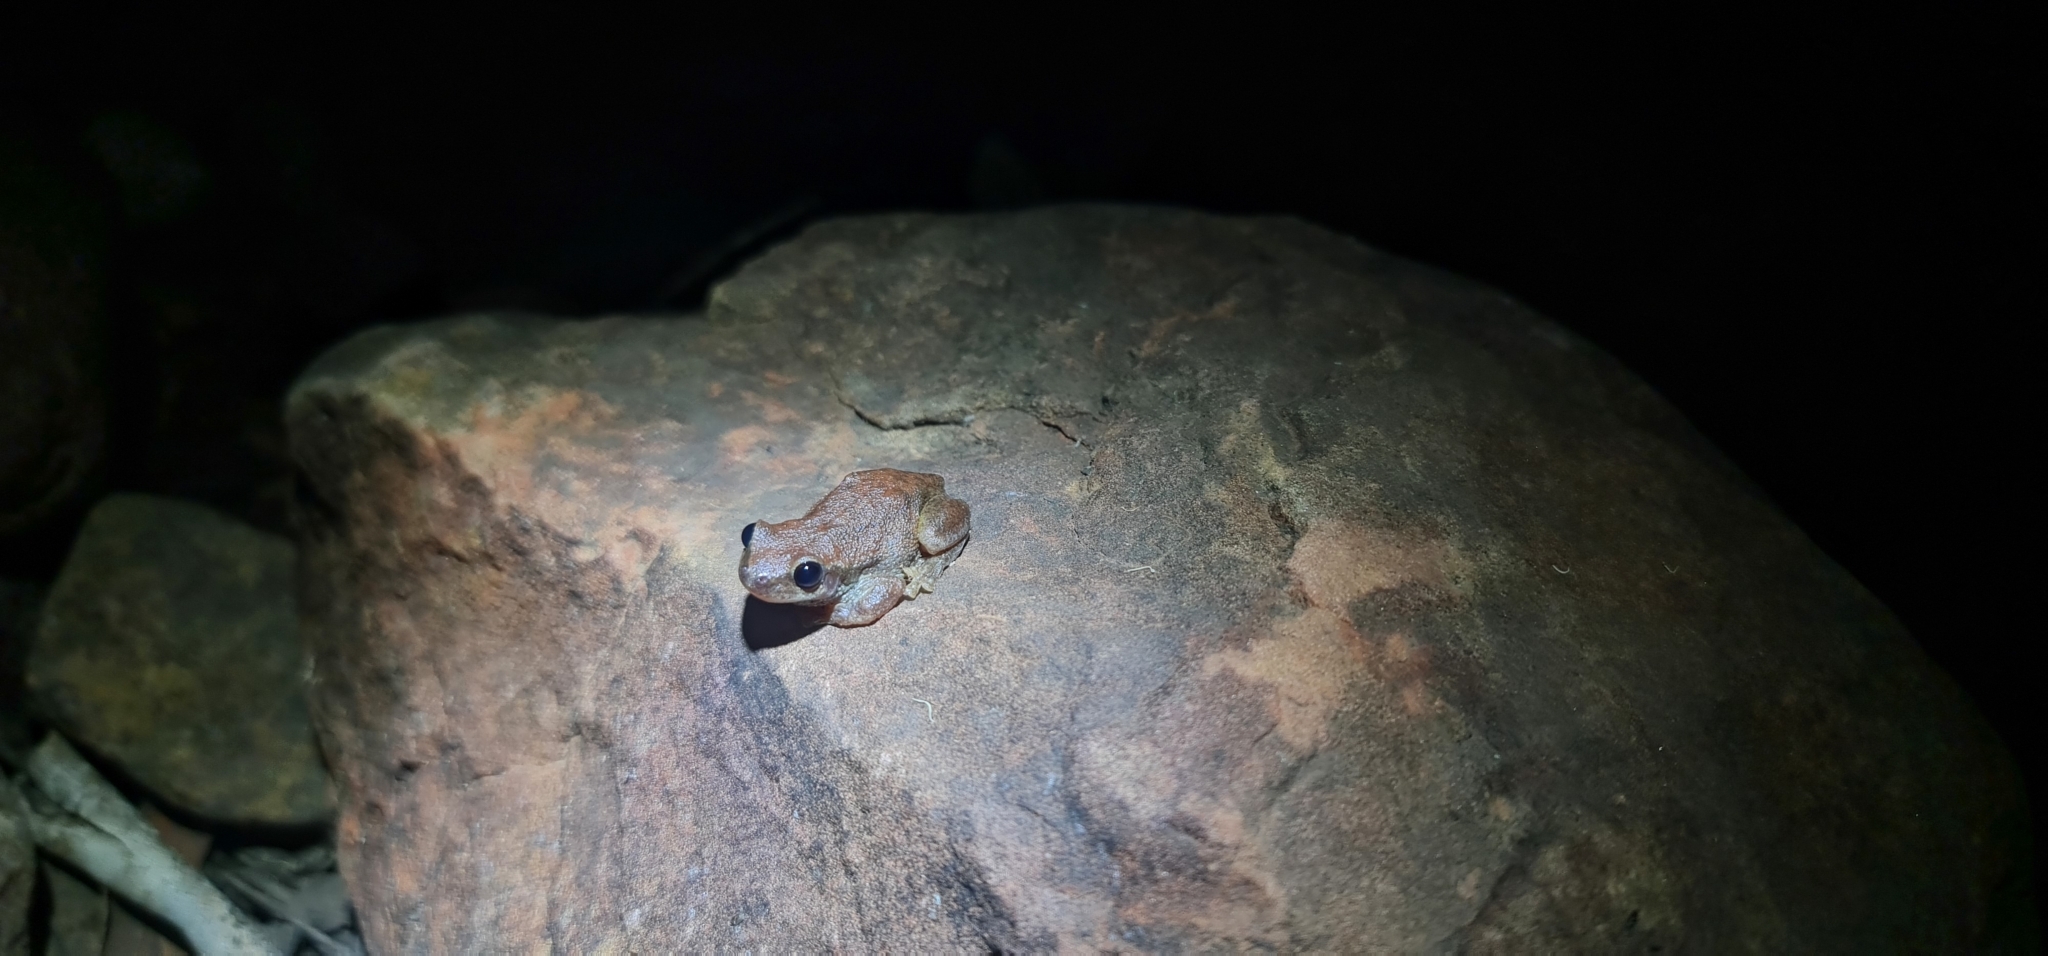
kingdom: Animalia
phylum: Chordata
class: Amphibia
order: Anura
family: Pelodryadidae
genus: Litoria
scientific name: Litoria rubella
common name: Desert tree frog
